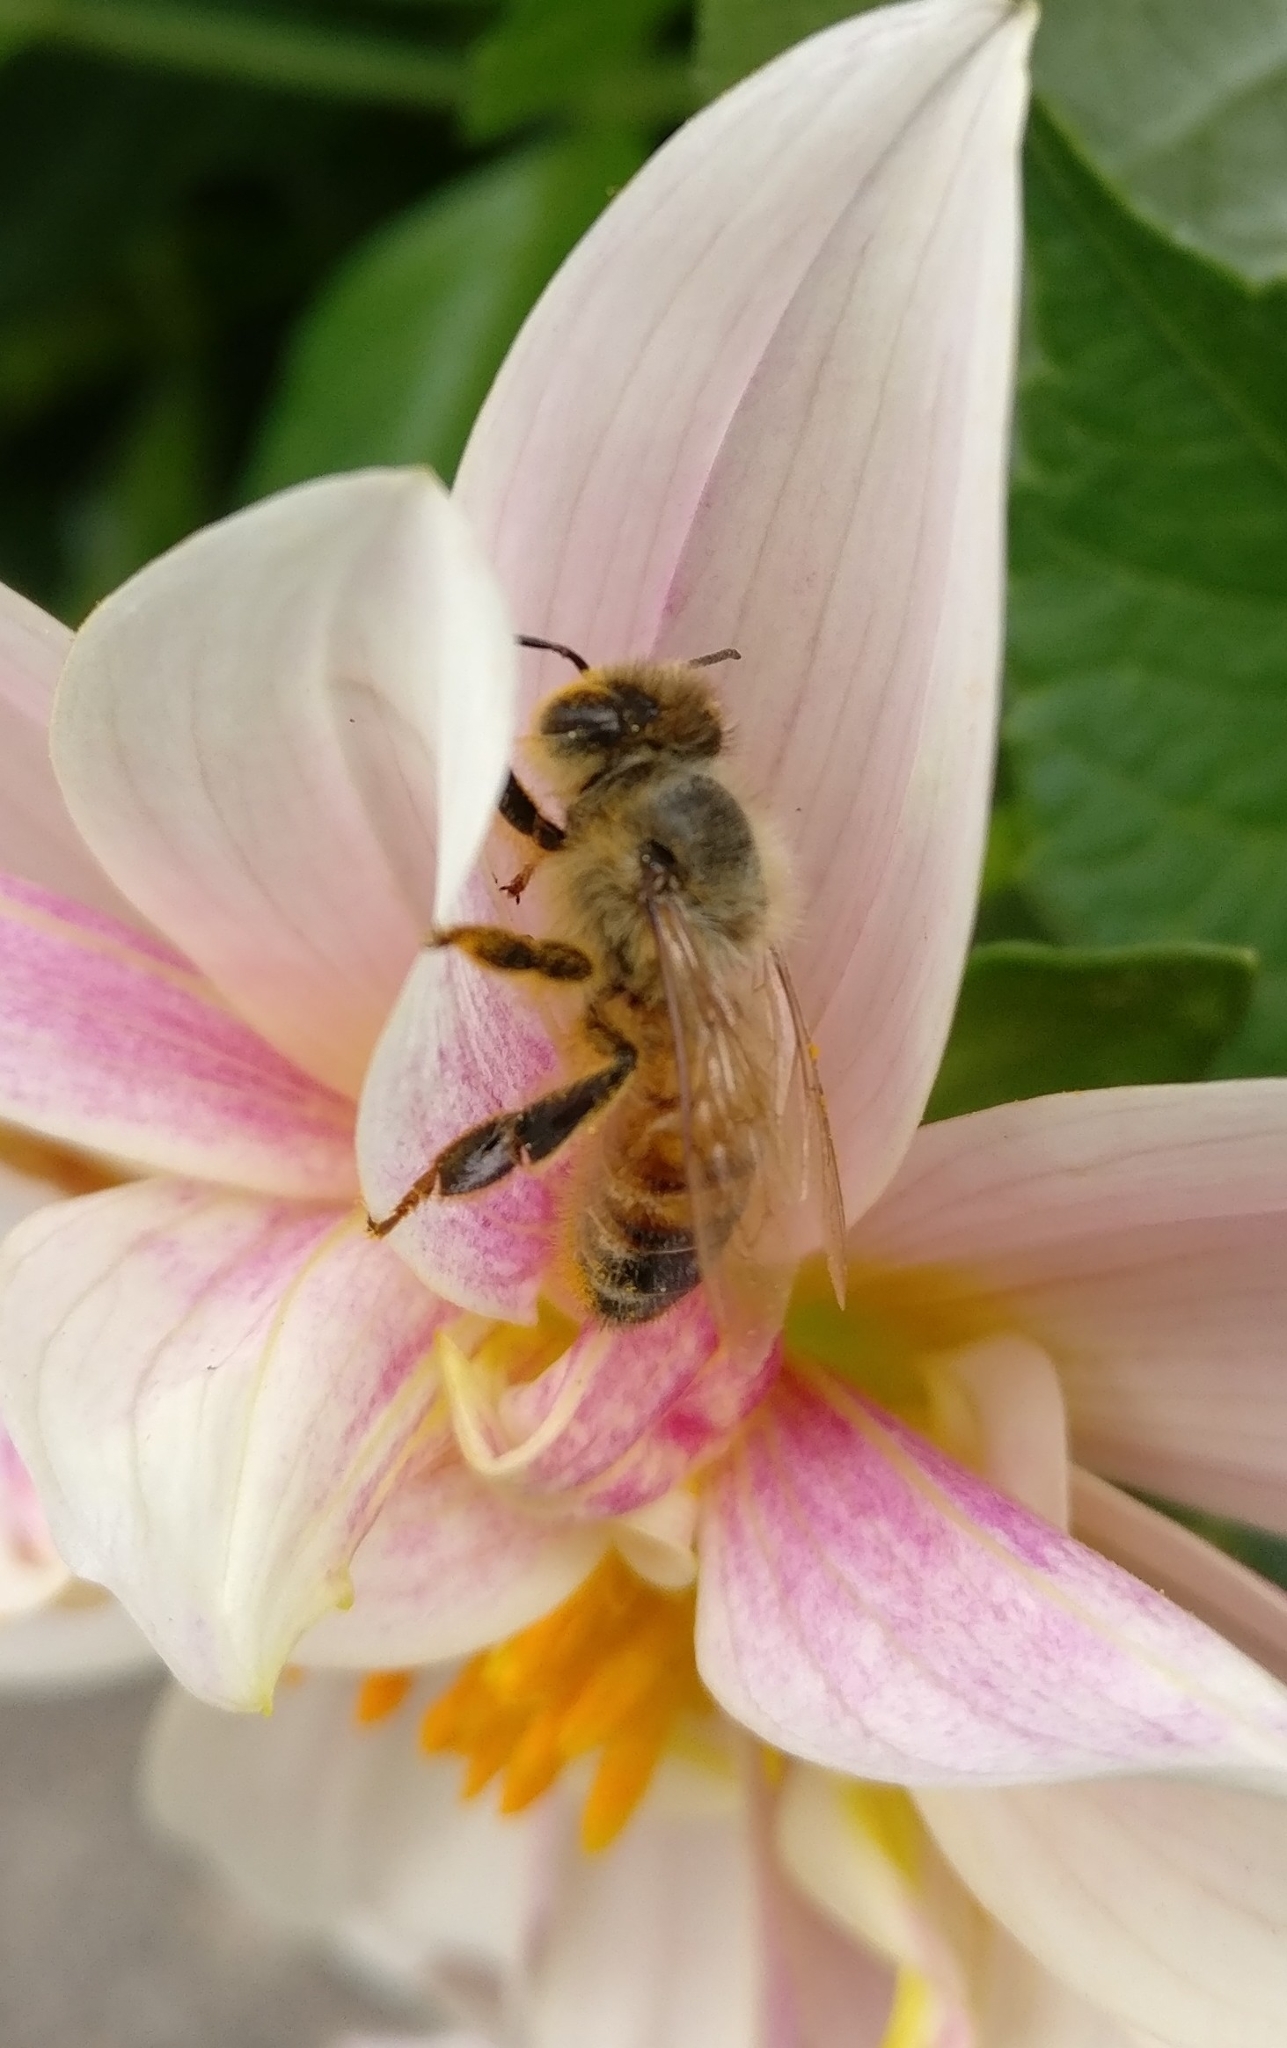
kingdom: Animalia
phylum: Arthropoda
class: Insecta
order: Hymenoptera
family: Apidae
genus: Apis
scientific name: Apis mellifera
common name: Honey bee
